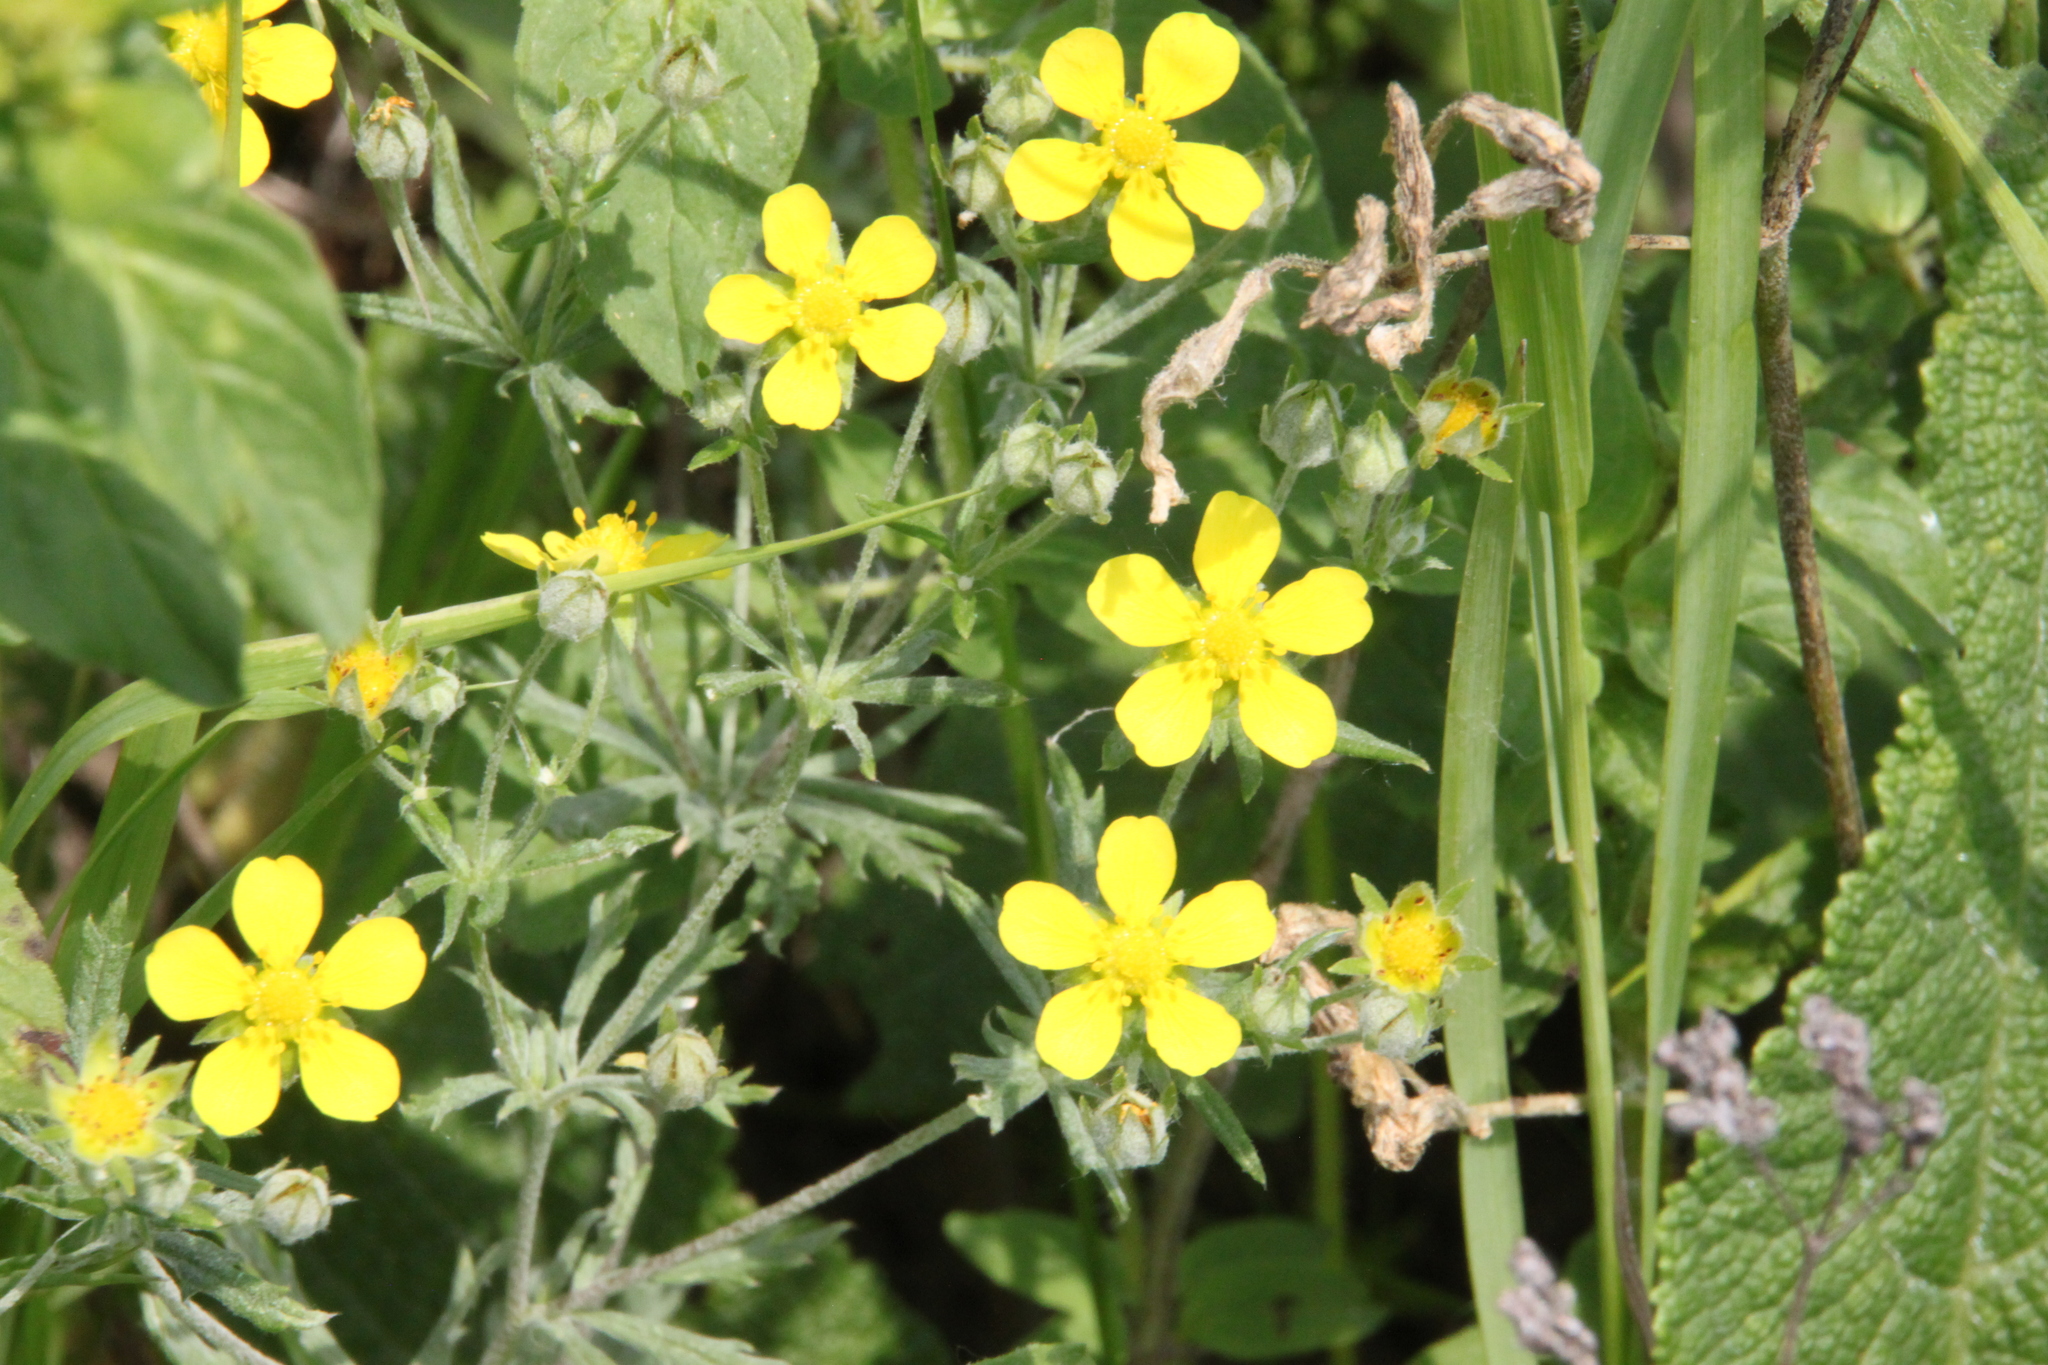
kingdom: Plantae
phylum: Tracheophyta
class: Magnoliopsida
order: Rosales
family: Rosaceae
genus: Potentilla
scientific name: Potentilla argentea
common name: Hoary cinquefoil
